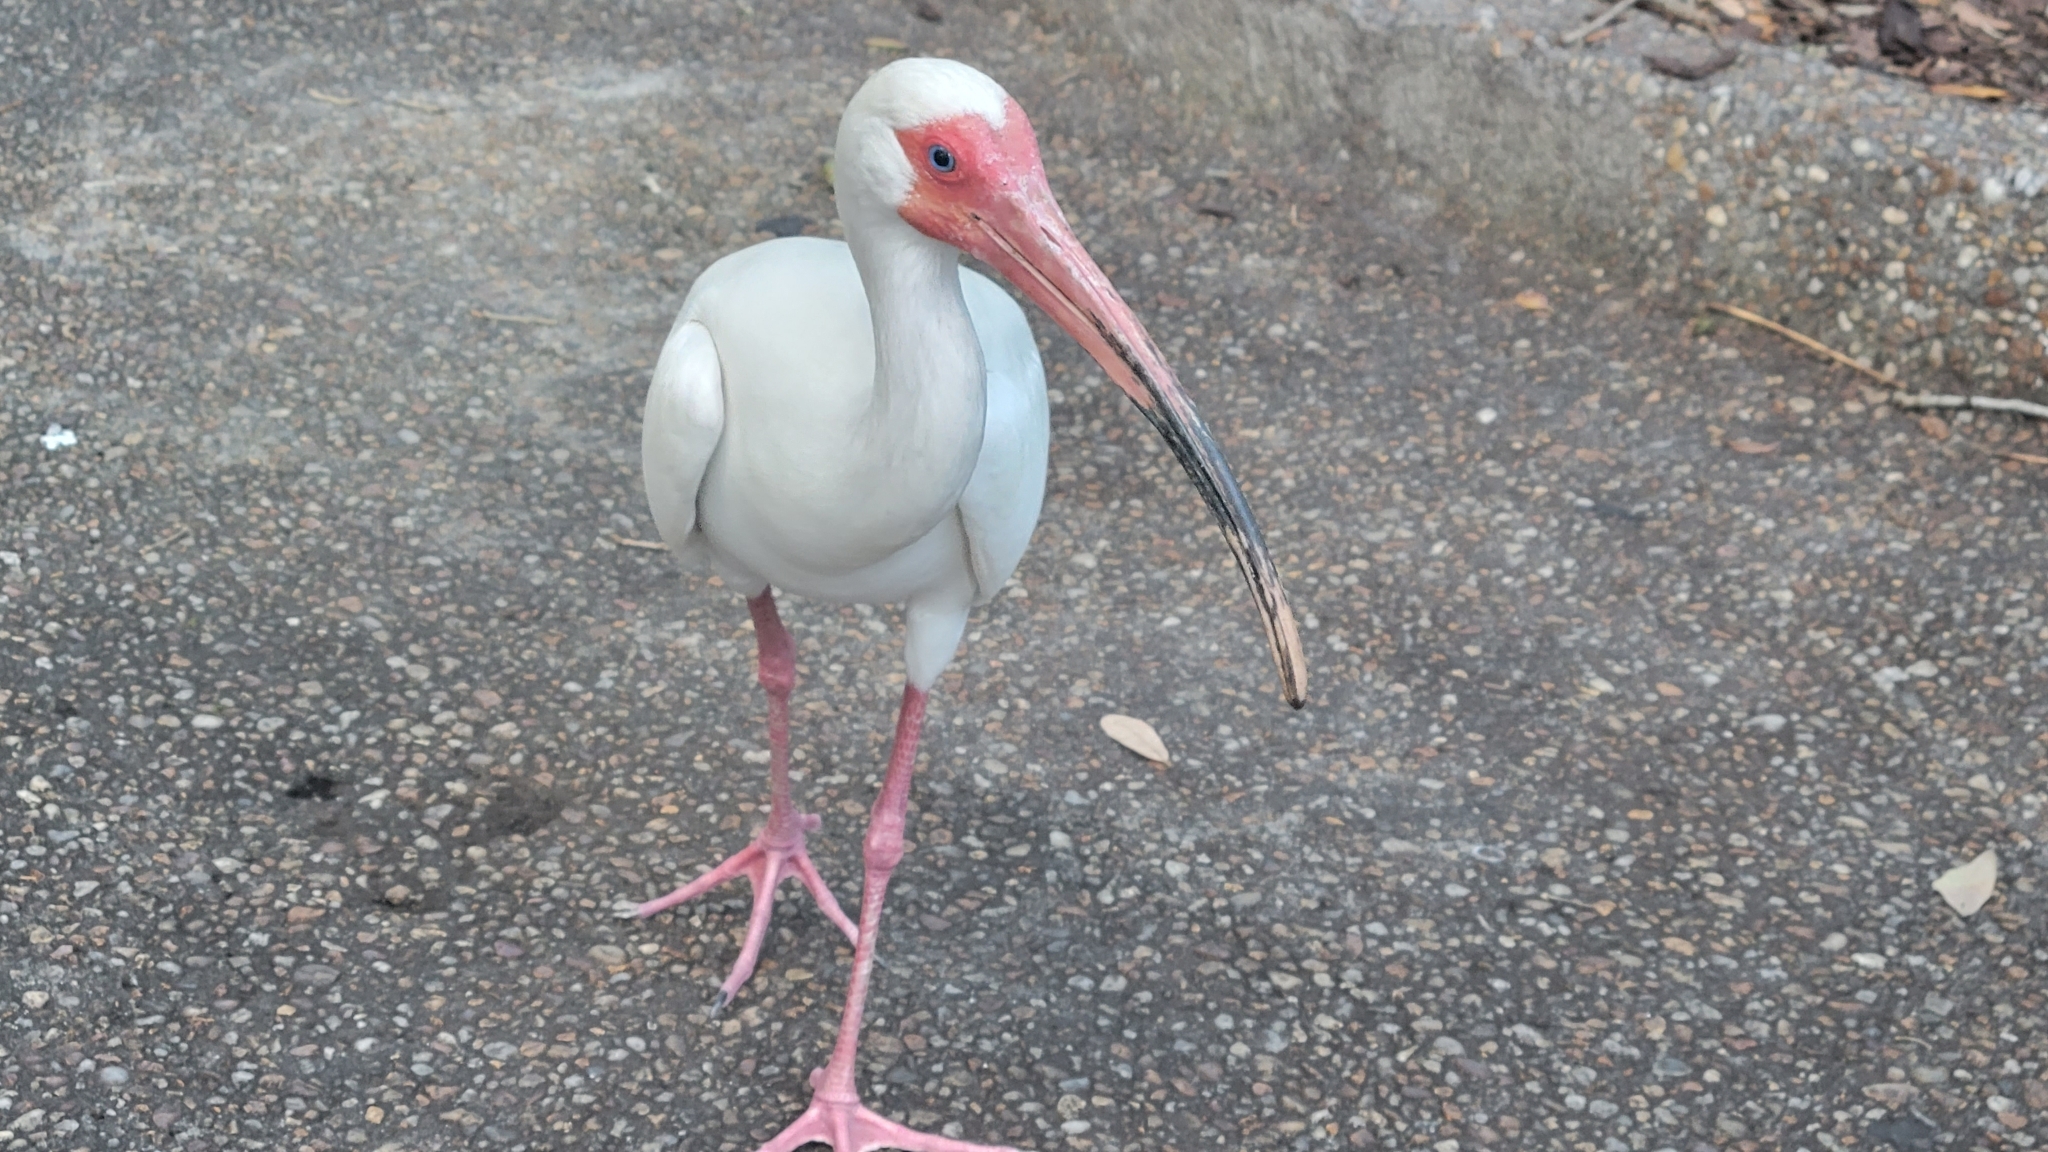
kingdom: Animalia
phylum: Chordata
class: Aves
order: Pelecaniformes
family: Threskiornithidae
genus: Eudocimus
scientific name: Eudocimus albus
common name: White ibis
